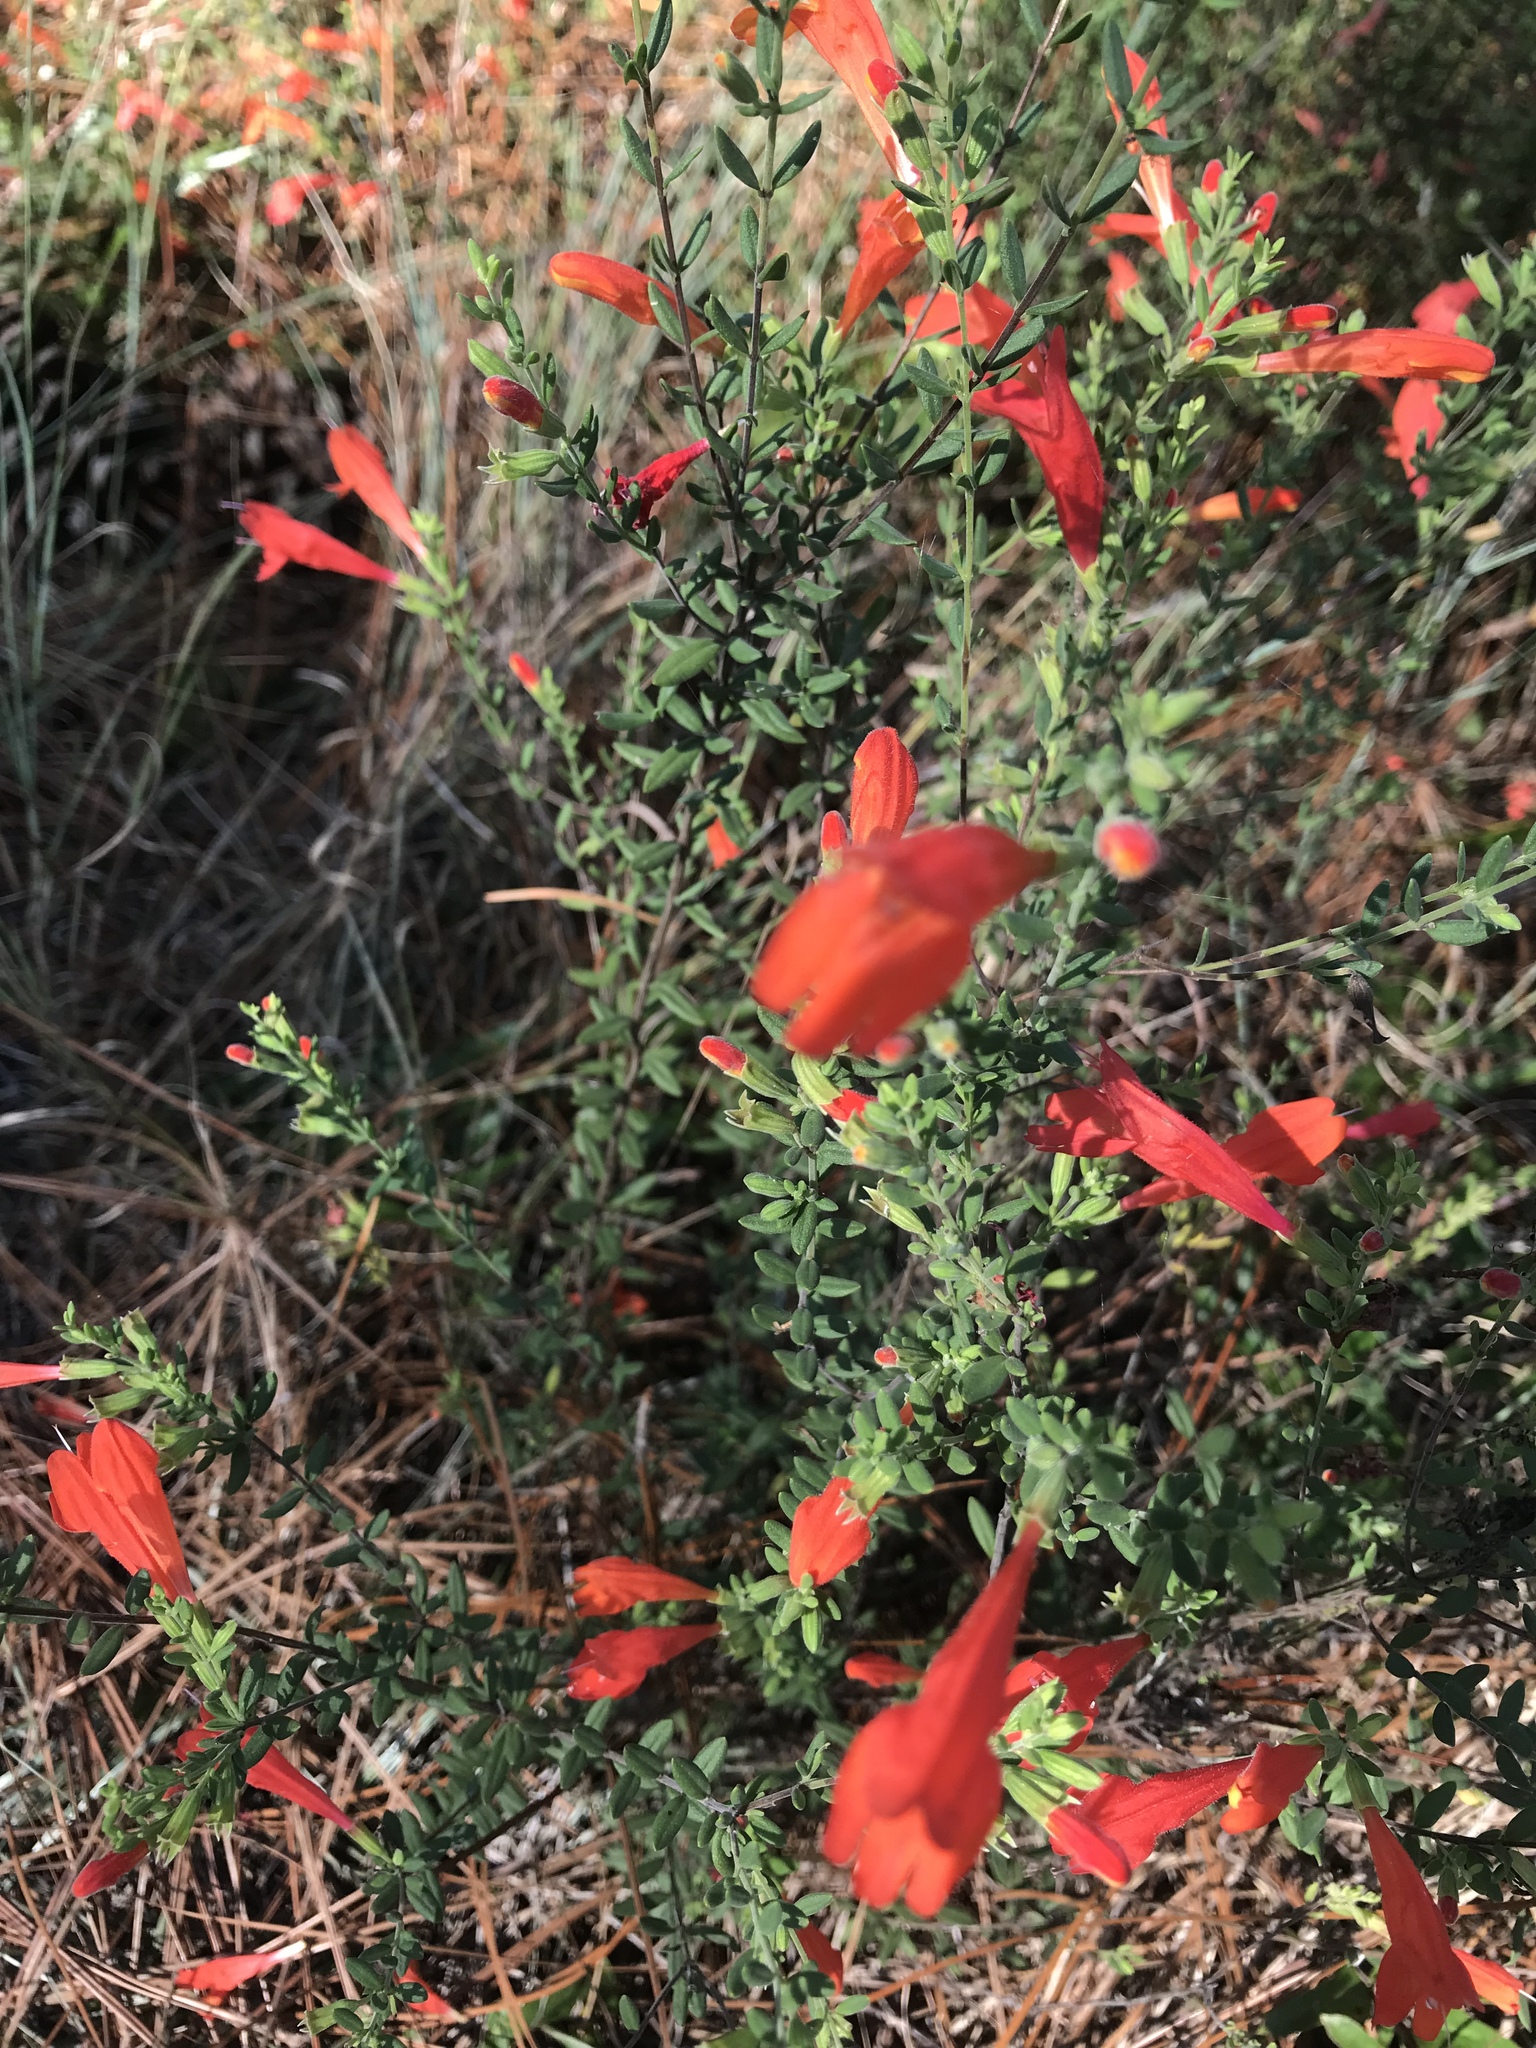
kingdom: Plantae
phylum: Tracheophyta
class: Magnoliopsida
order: Lamiales
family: Lamiaceae
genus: Clinopodium
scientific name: Clinopodium coccineum
